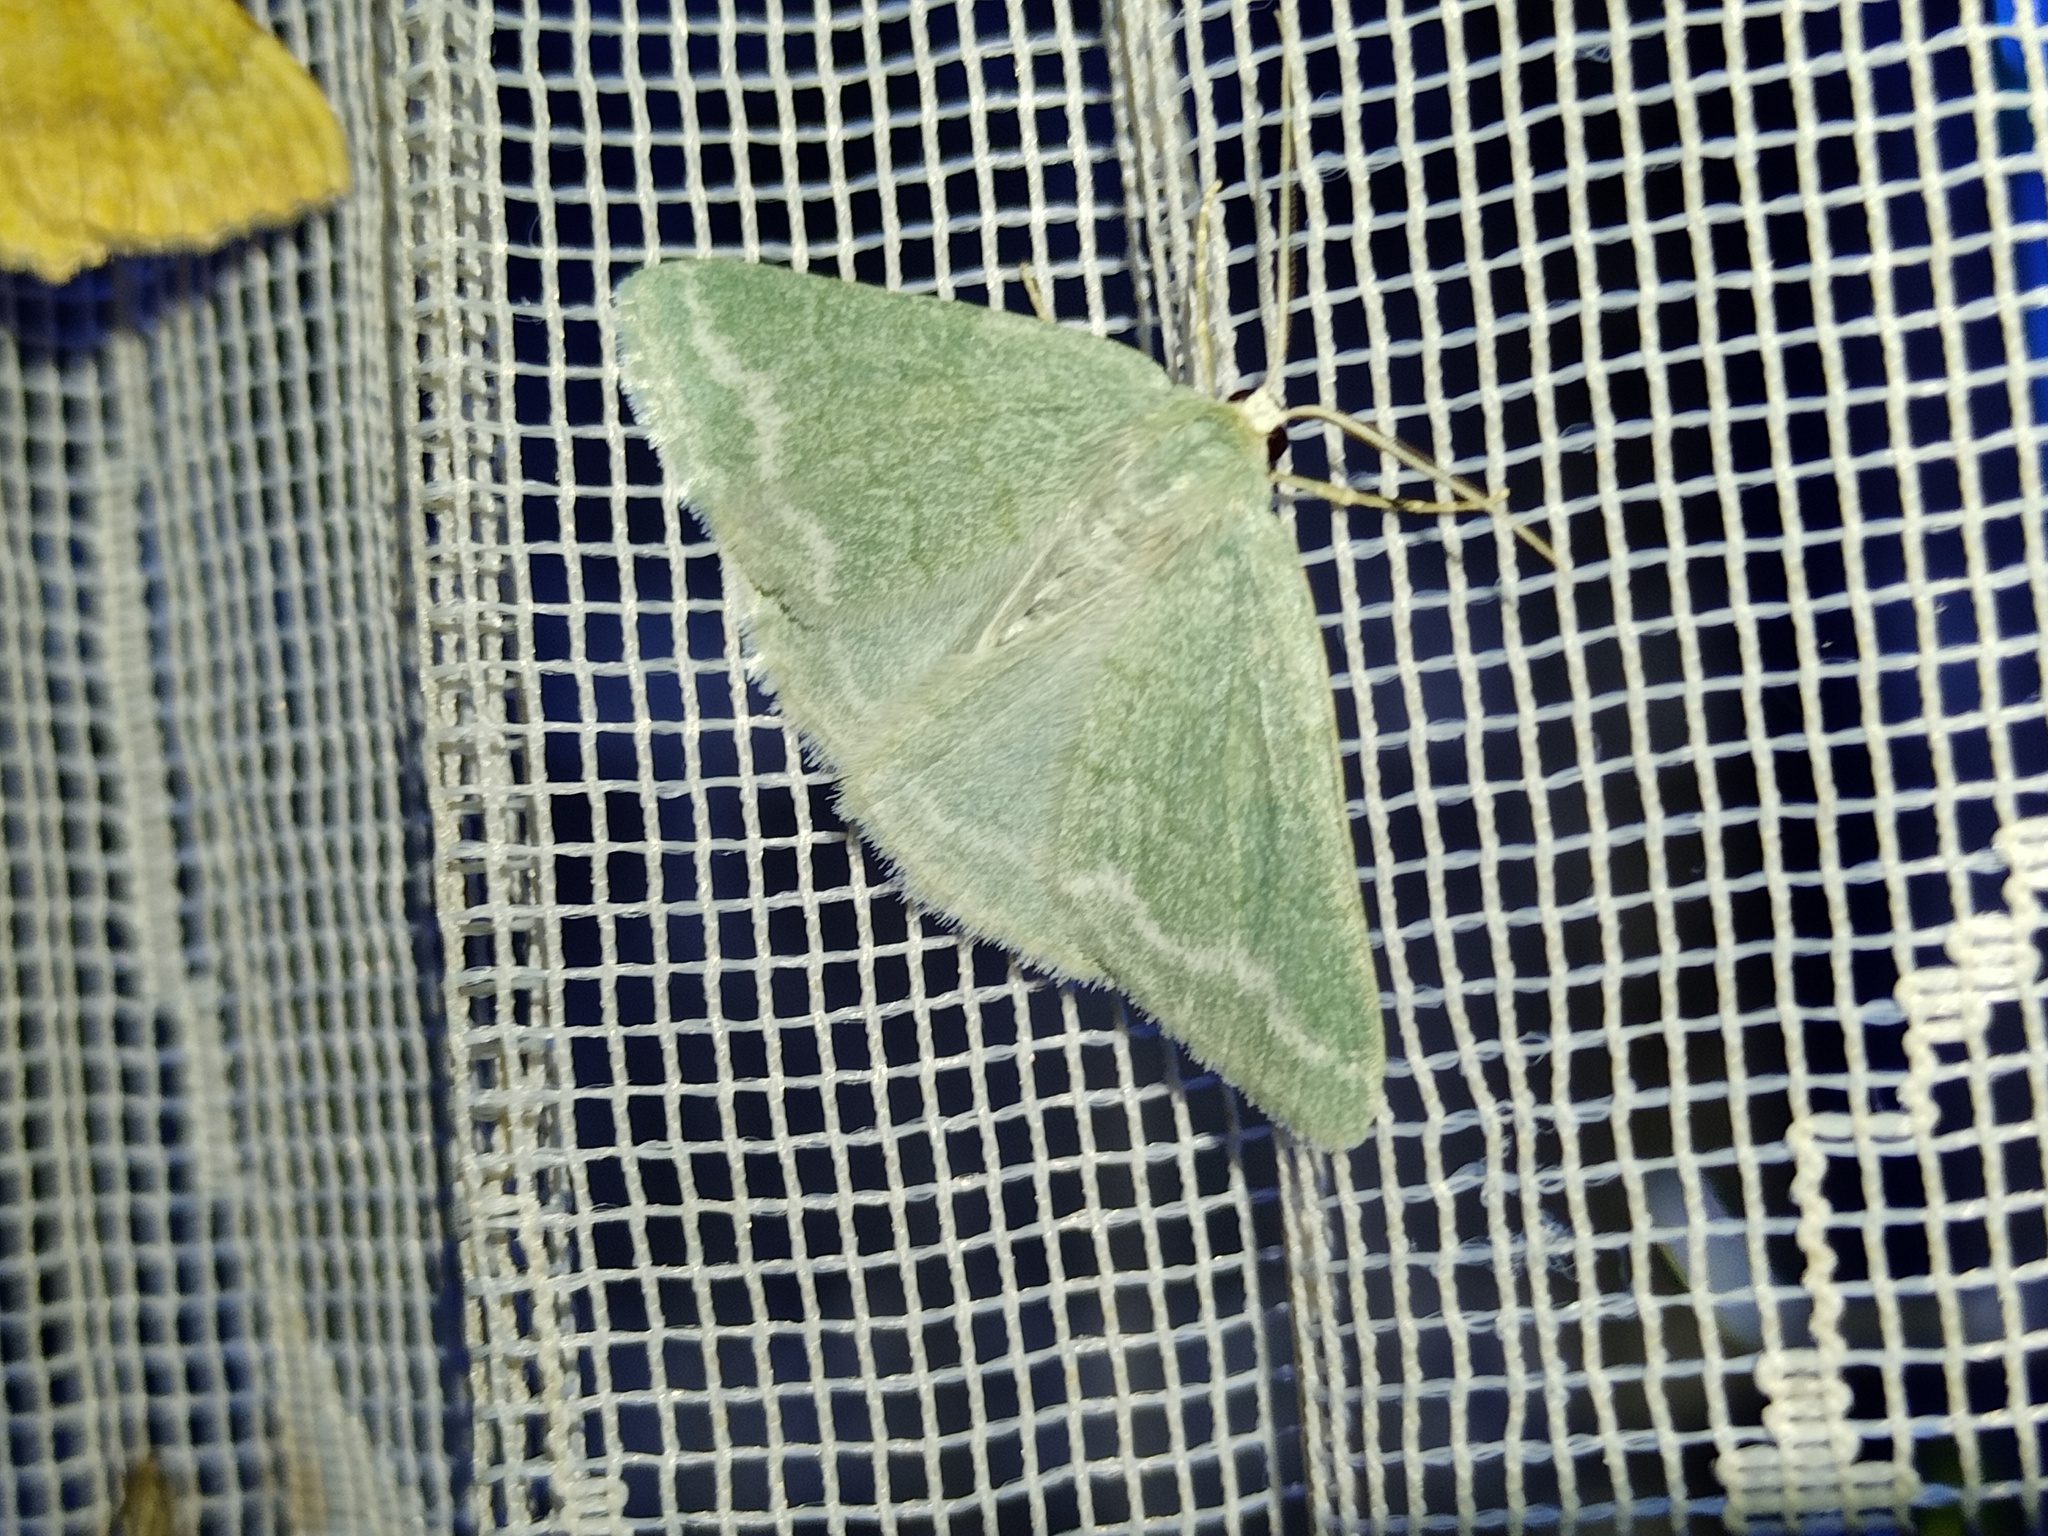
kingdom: Animalia
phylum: Arthropoda
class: Insecta
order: Lepidoptera
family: Geometridae
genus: Pseudoterpna
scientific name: Pseudoterpna pruinata
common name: Grass emerald
